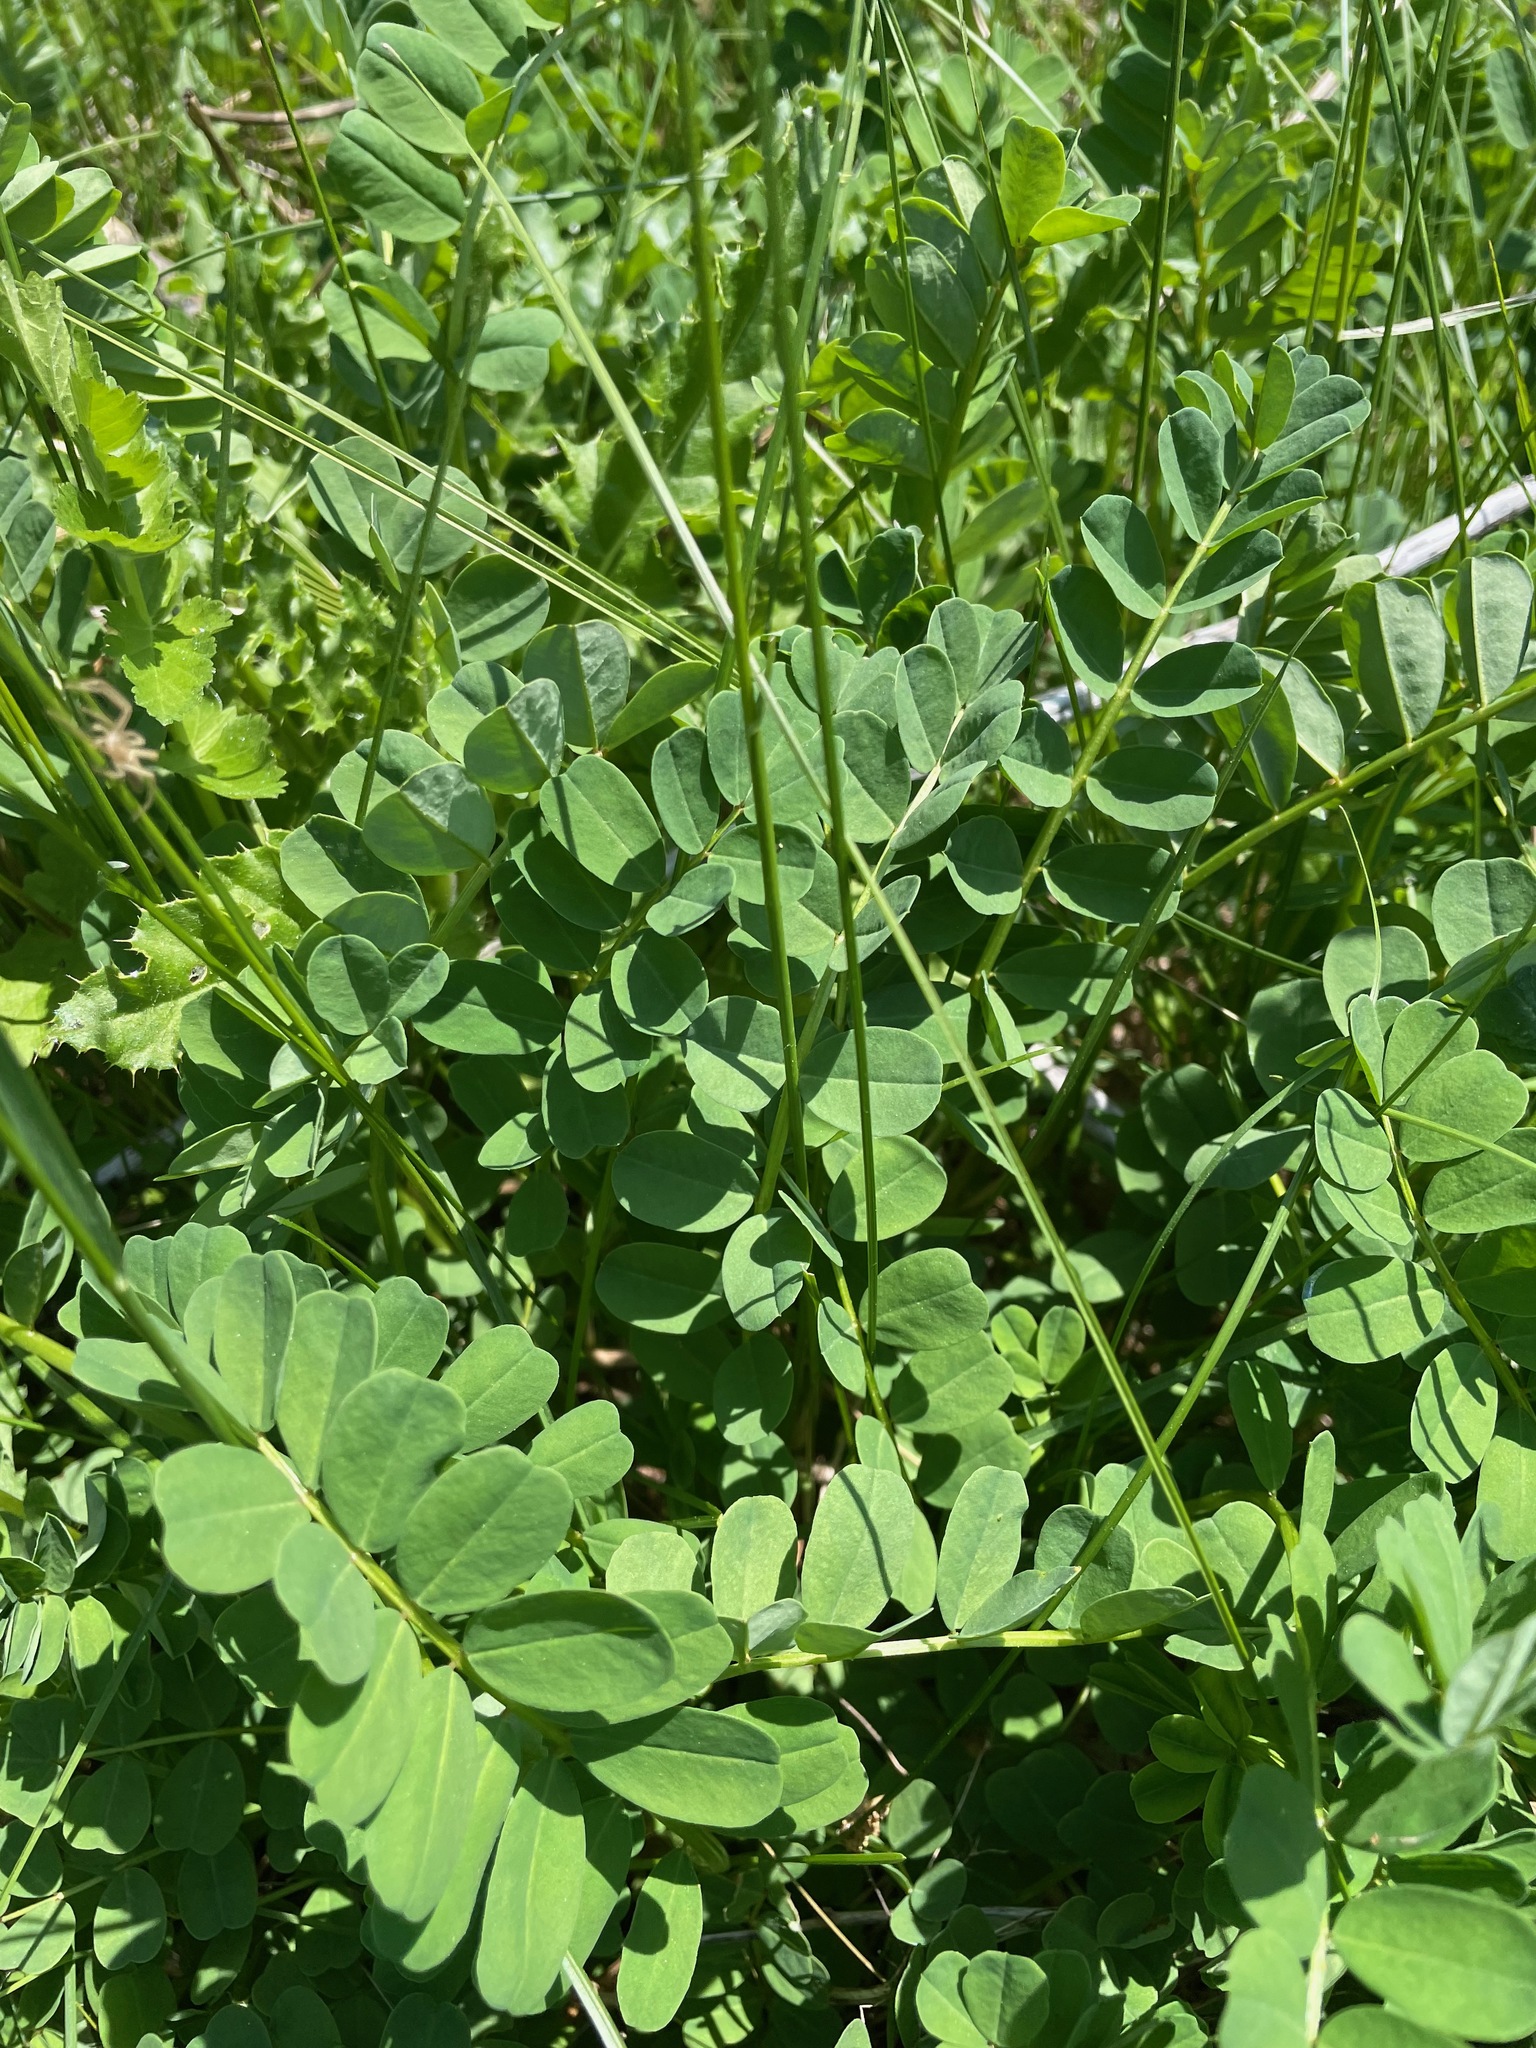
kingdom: Plantae
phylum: Tracheophyta
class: Magnoliopsida
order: Fabales
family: Fabaceae
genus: Coronilla
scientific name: Coronilla varia
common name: Crownvetch
